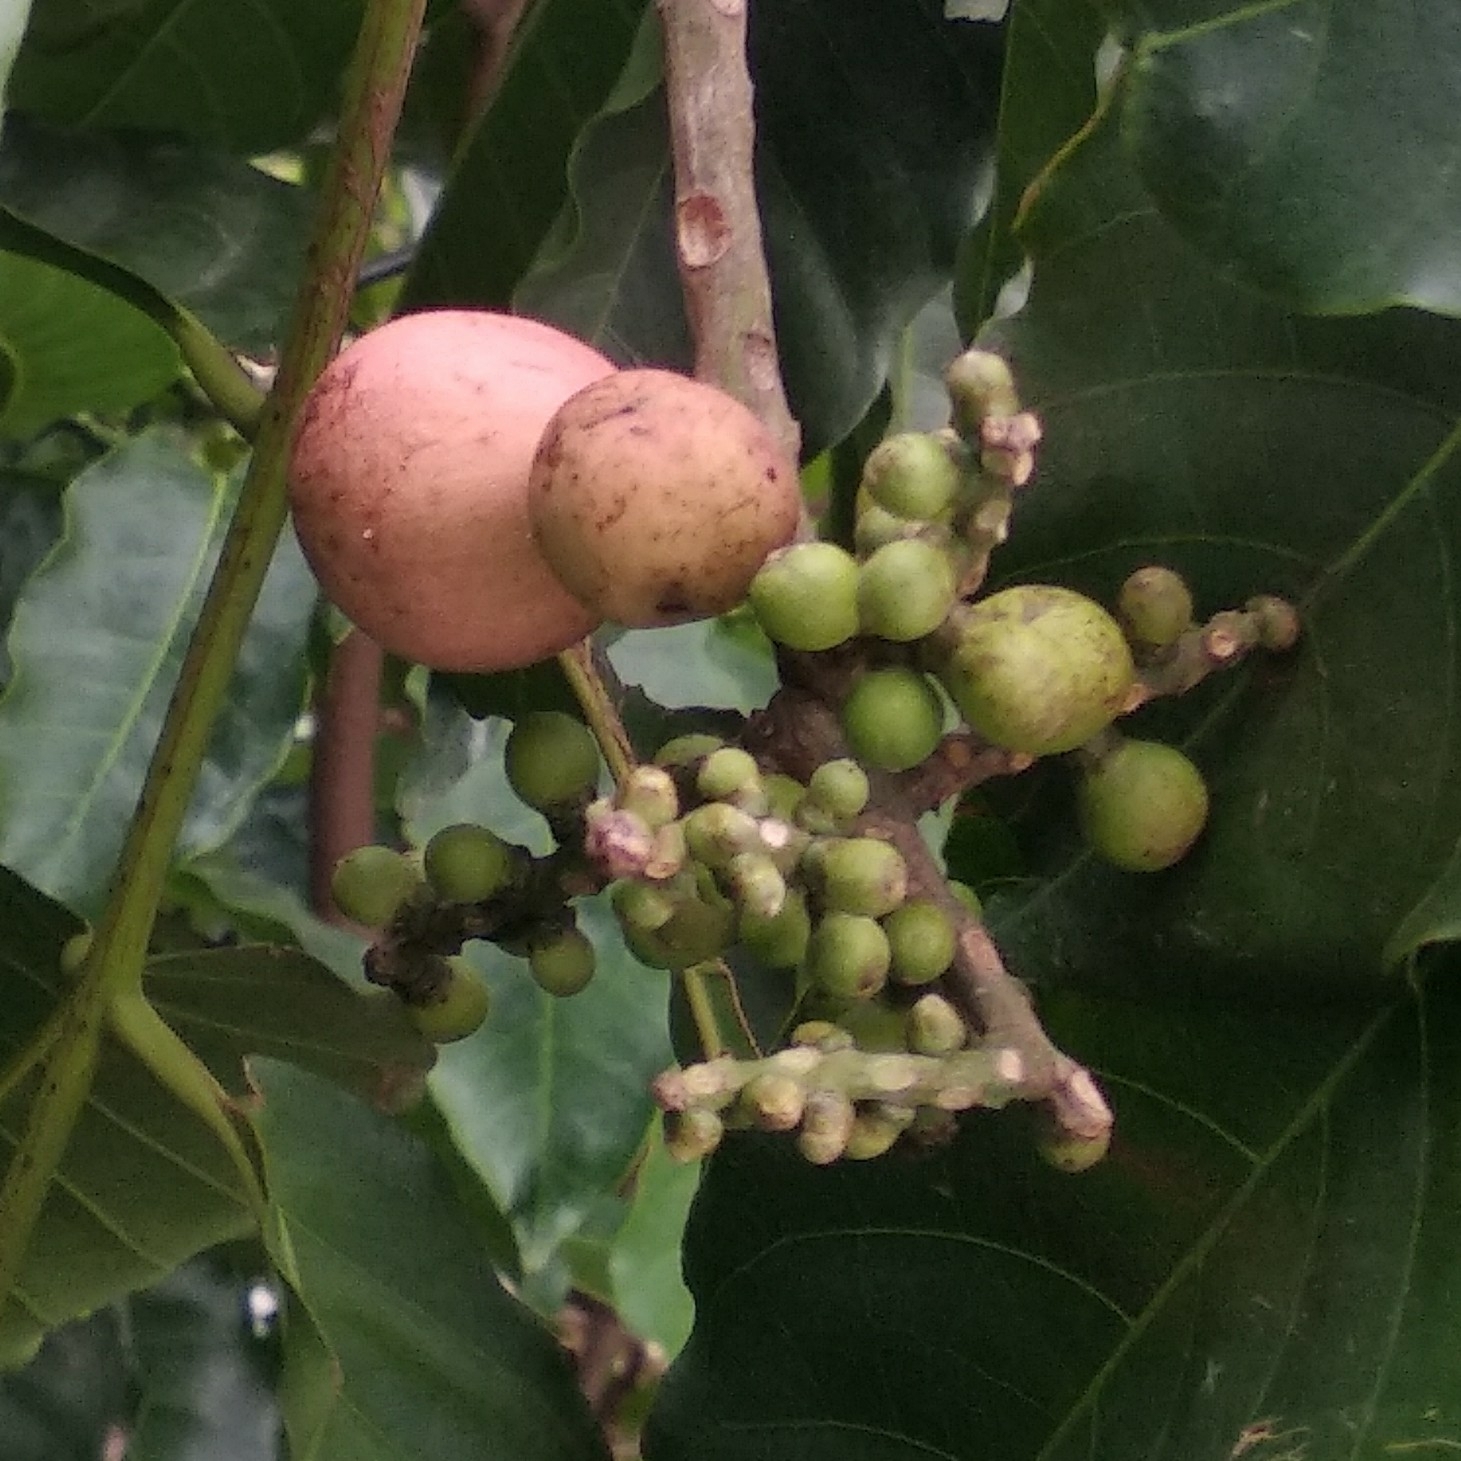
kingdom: Plantae
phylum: Tracheophyta
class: Magnoliopsida
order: Sapindales
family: Meliaceae
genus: Aphanamixis
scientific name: Aphanamixis polystachya
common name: Pithraj tree
